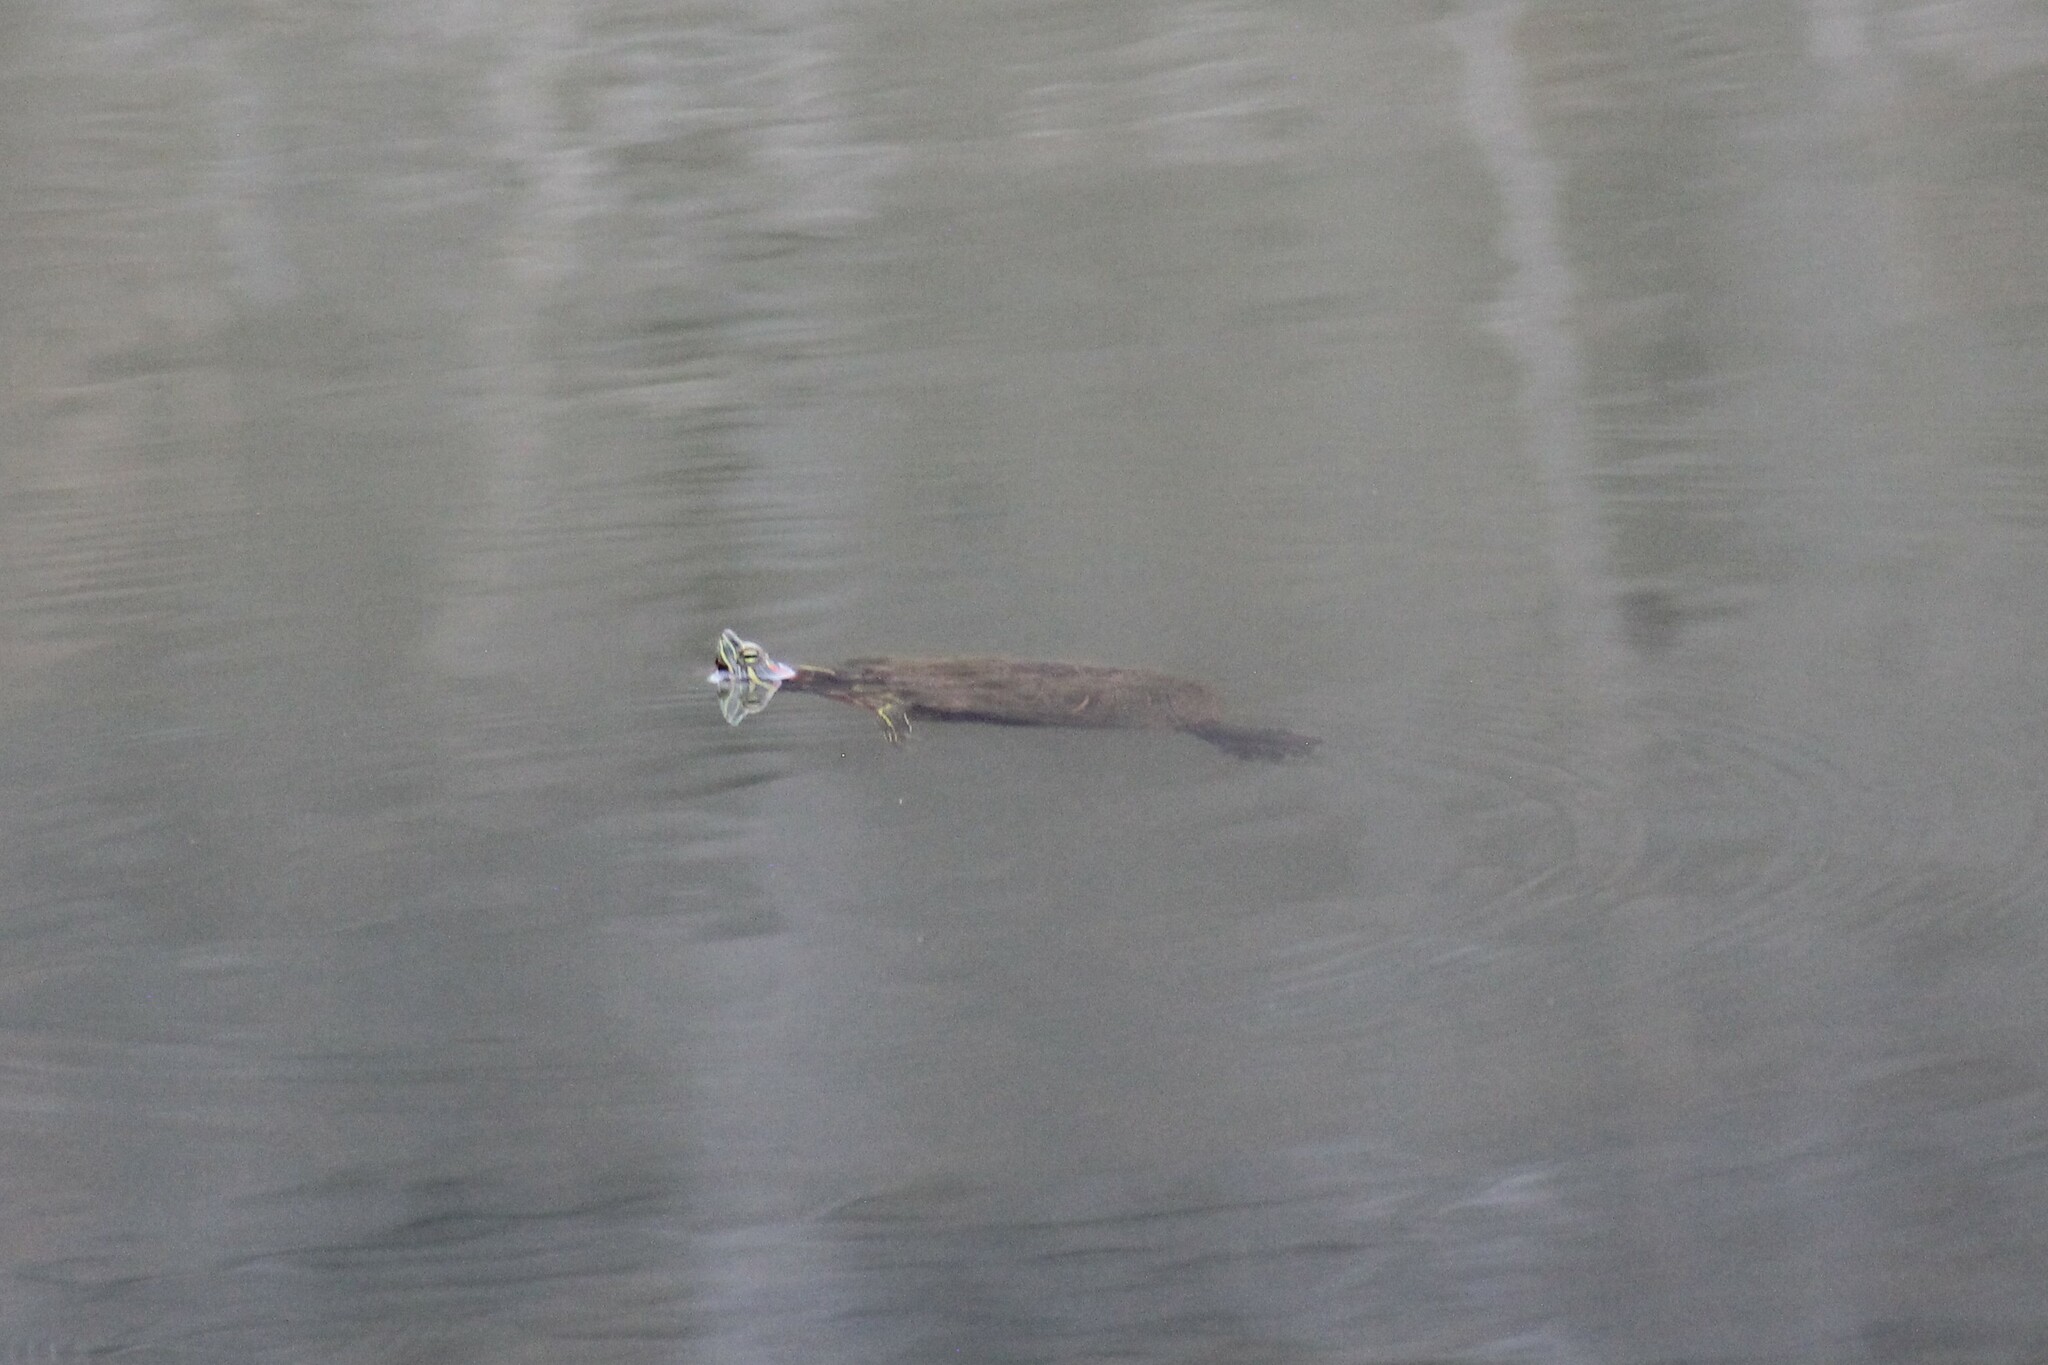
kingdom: Animalia
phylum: Chordata
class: Testudines
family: Emydidae
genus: Trachemys
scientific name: Trachemys scripta
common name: Slider
